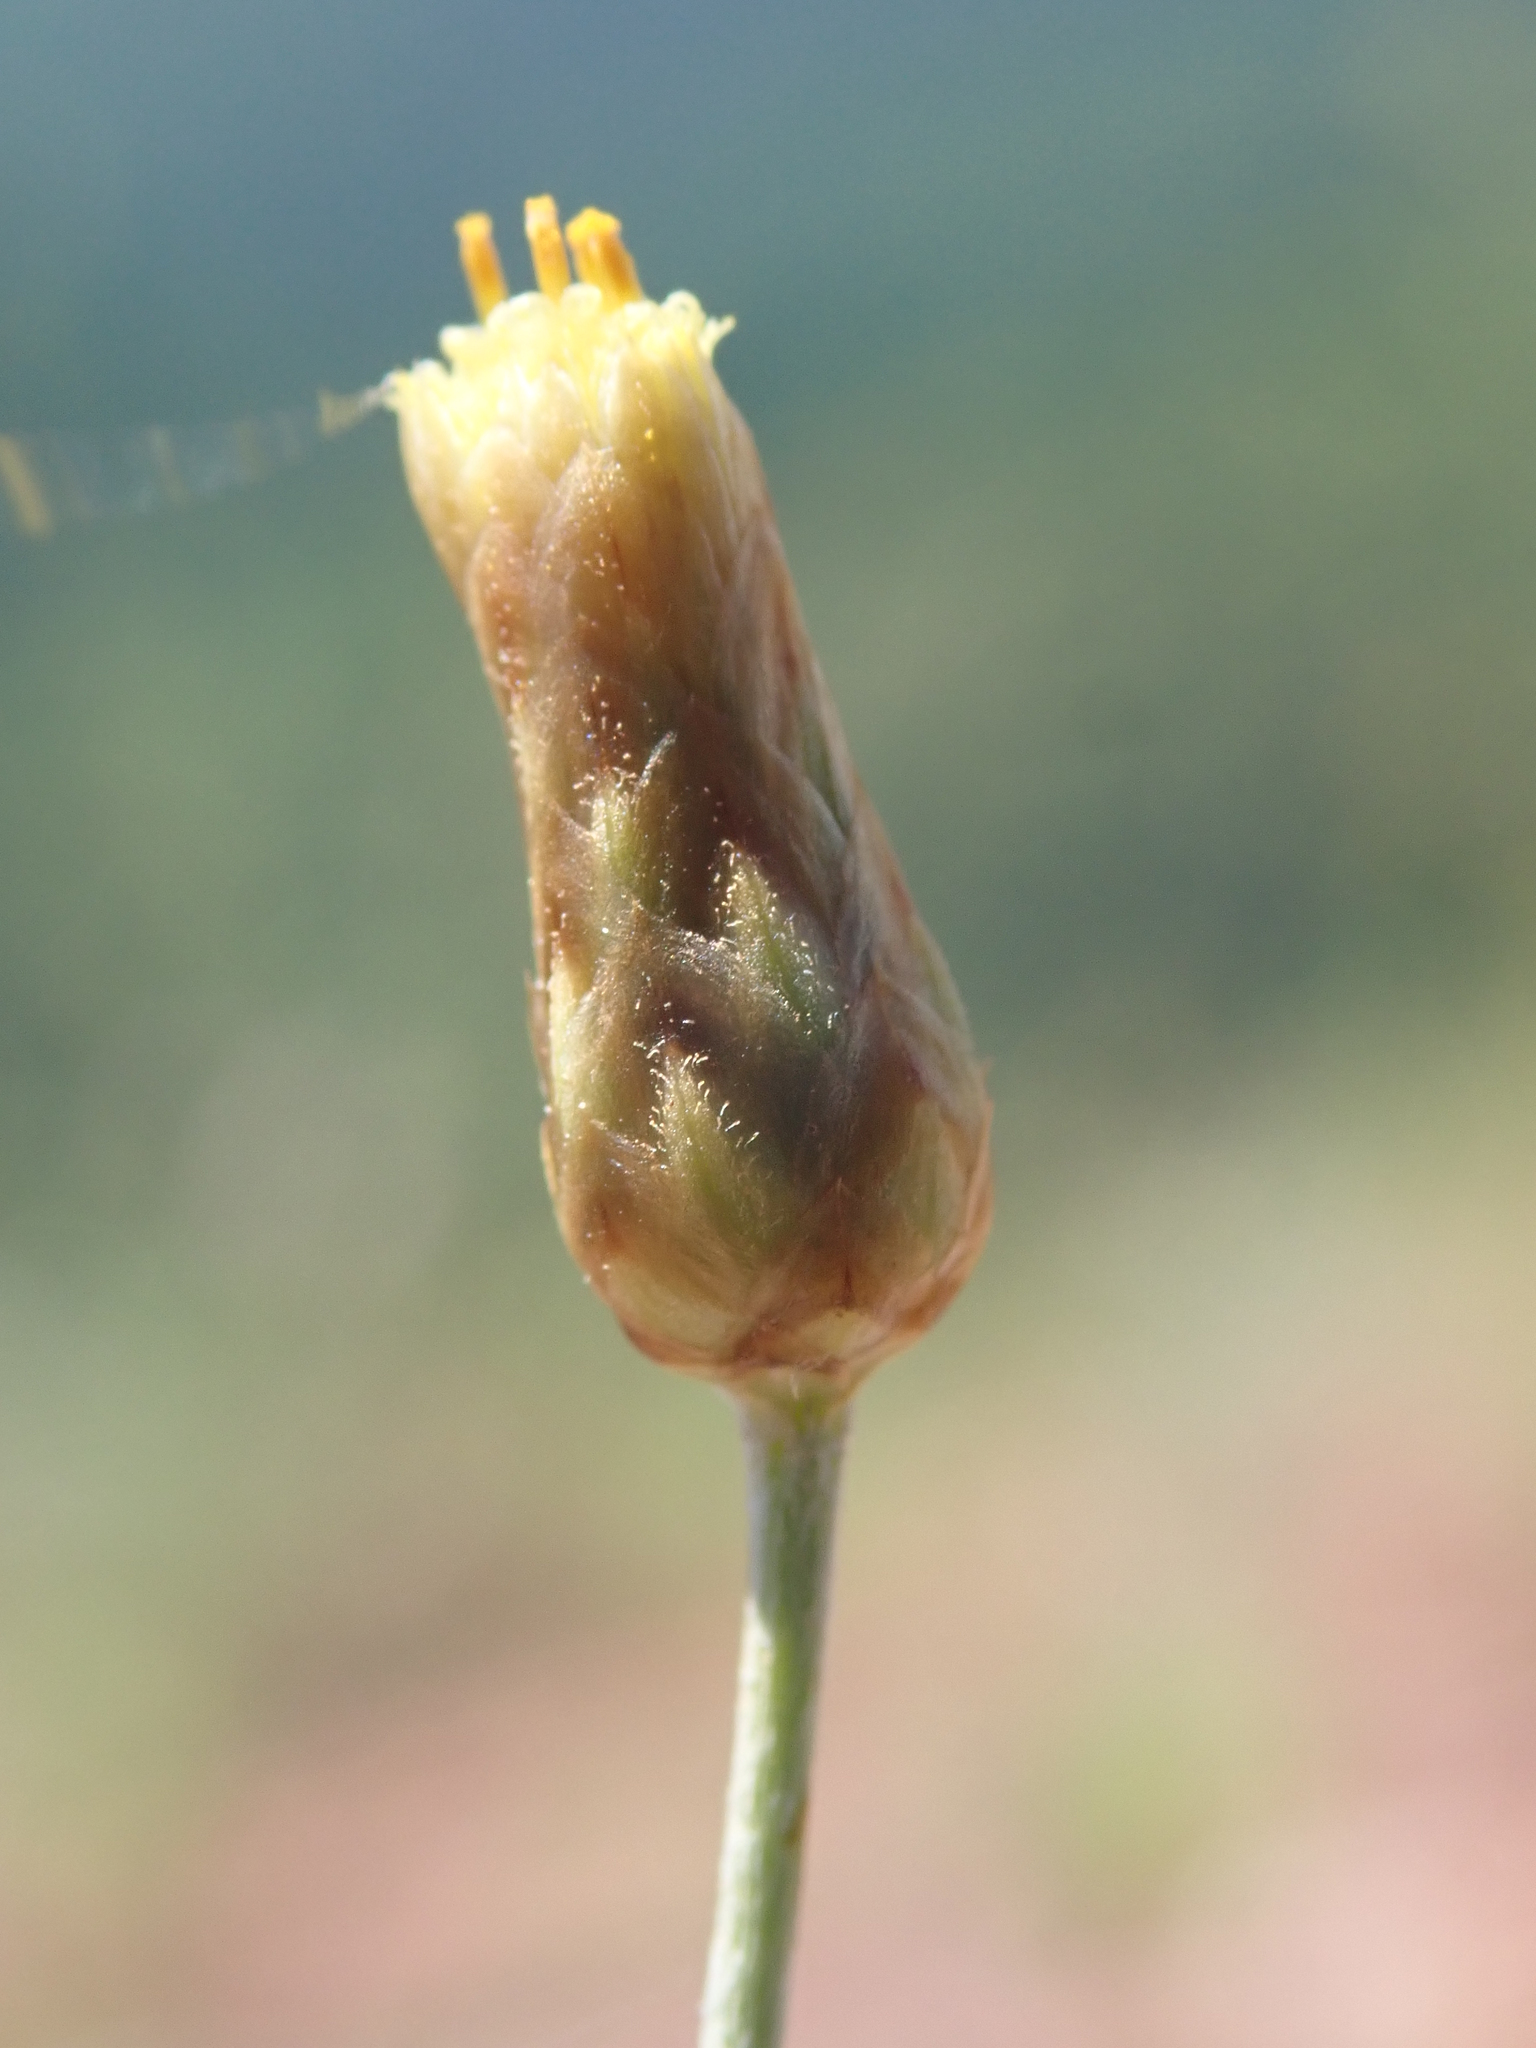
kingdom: Plantae
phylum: Tracheophyta
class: Magnoliopsida
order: Asterales
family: Asteraceae
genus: Phagnalon
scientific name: Phagnalon sordidum
